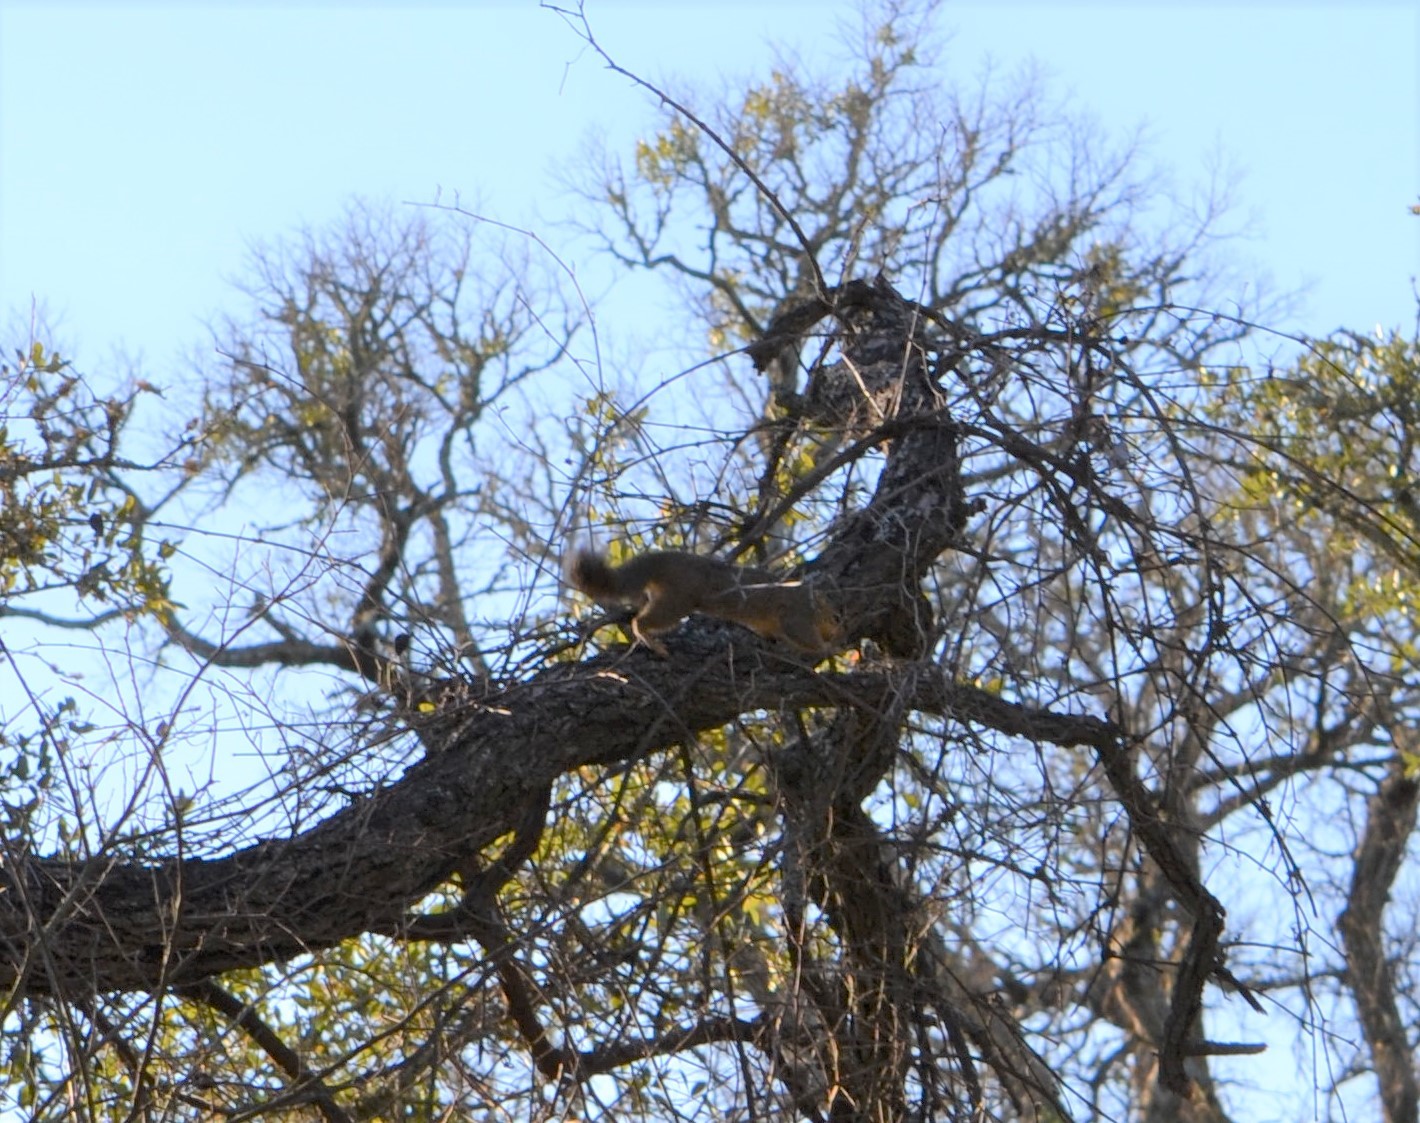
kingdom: Animalia
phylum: Chordata
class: Mammalia
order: Rodentia
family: Sciuridae
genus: Sciurus
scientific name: Sciurus niger
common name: Fox squirrel
